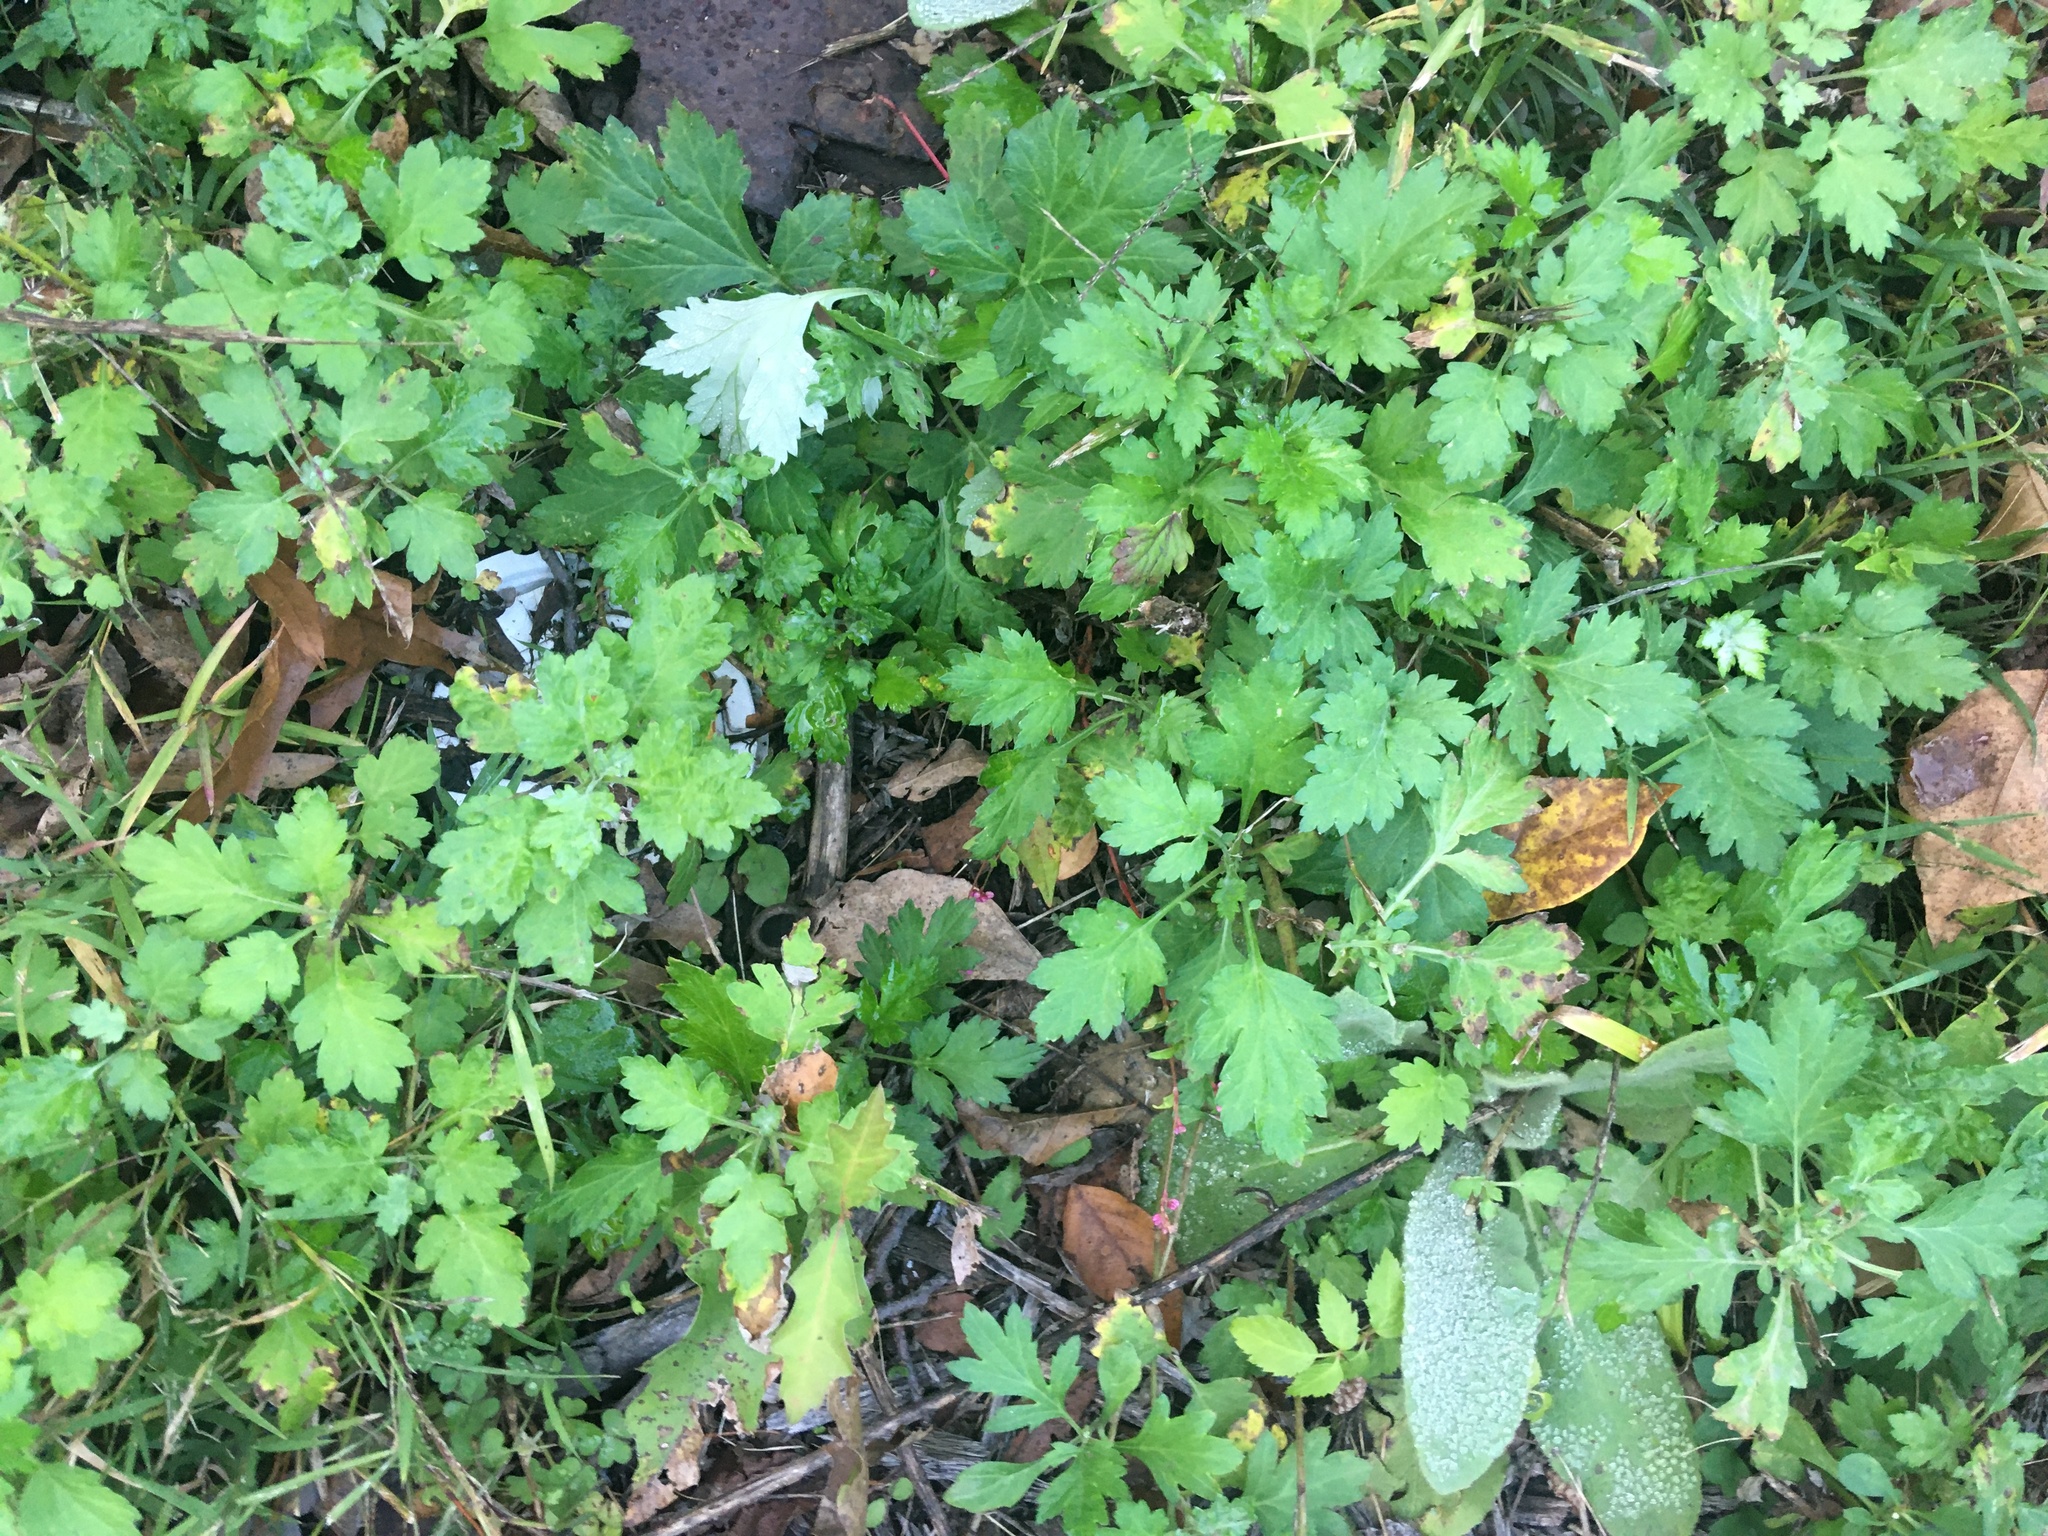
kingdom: Plantae
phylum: Tracheophyta
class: Magnoliopsida
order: Asterales
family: Asteraceae
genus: Artemisia
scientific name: Artemisia vulgaris
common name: Mugwort
